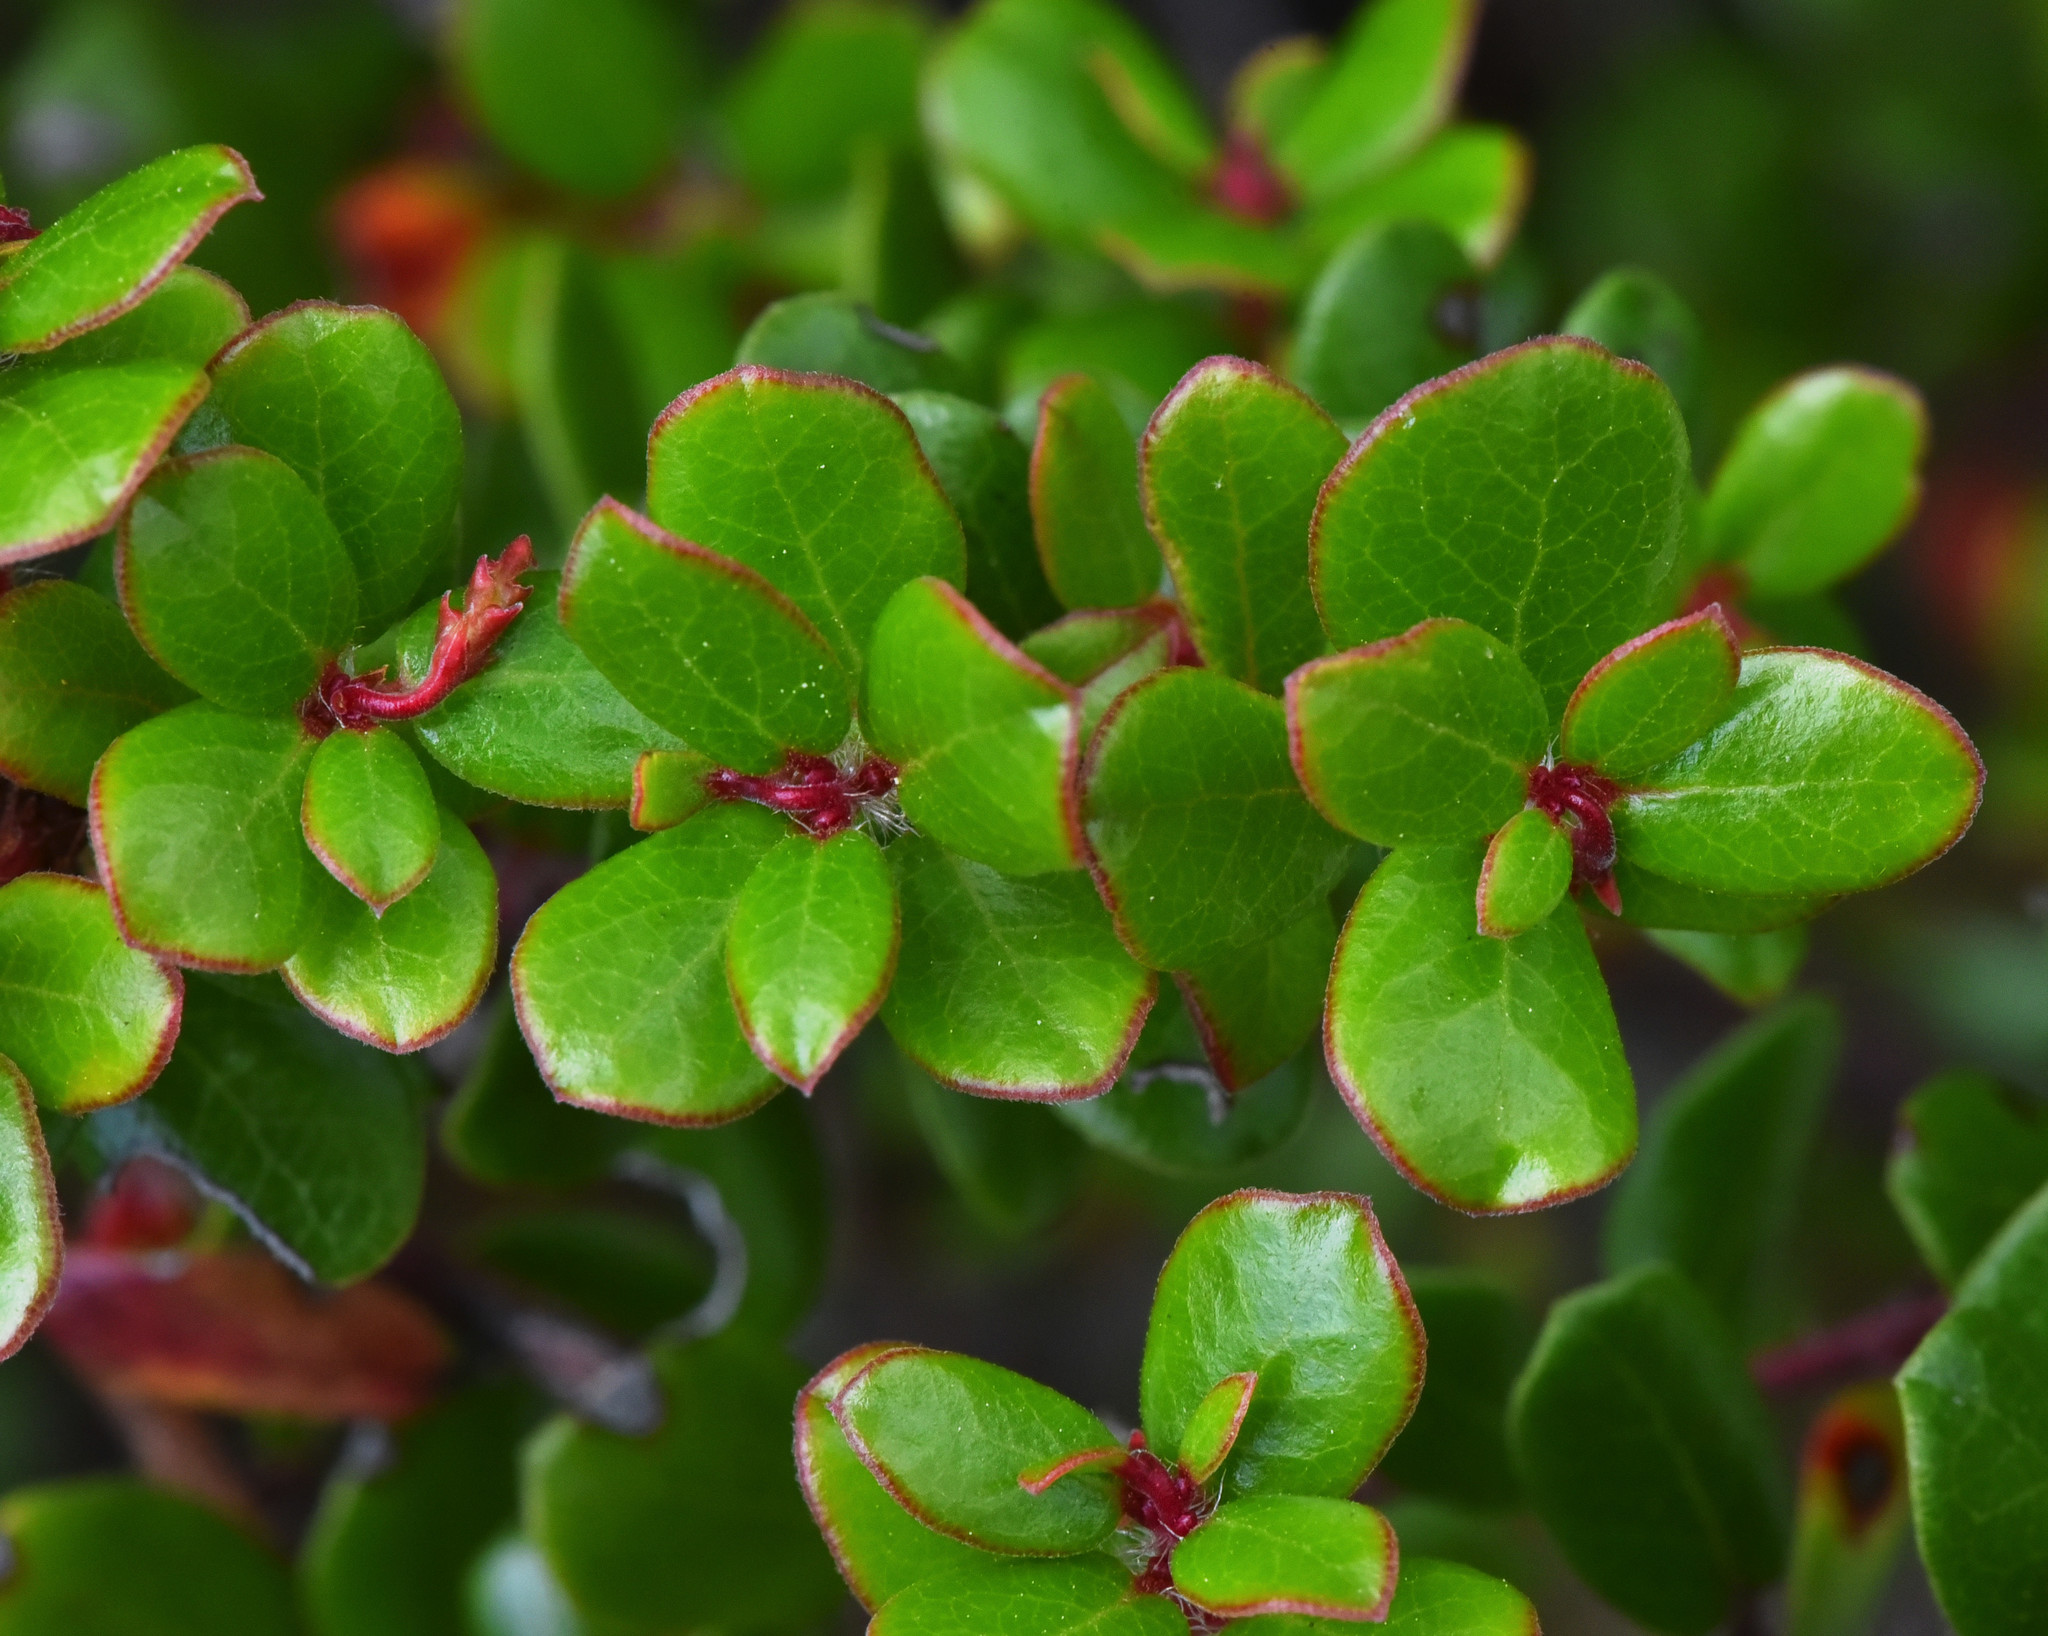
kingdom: Plantae
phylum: Tracheophyta
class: Magnoliopsida
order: Ericales
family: Ericaceae
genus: Arctostaphylos
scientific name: Arctostaphylos nummularia
